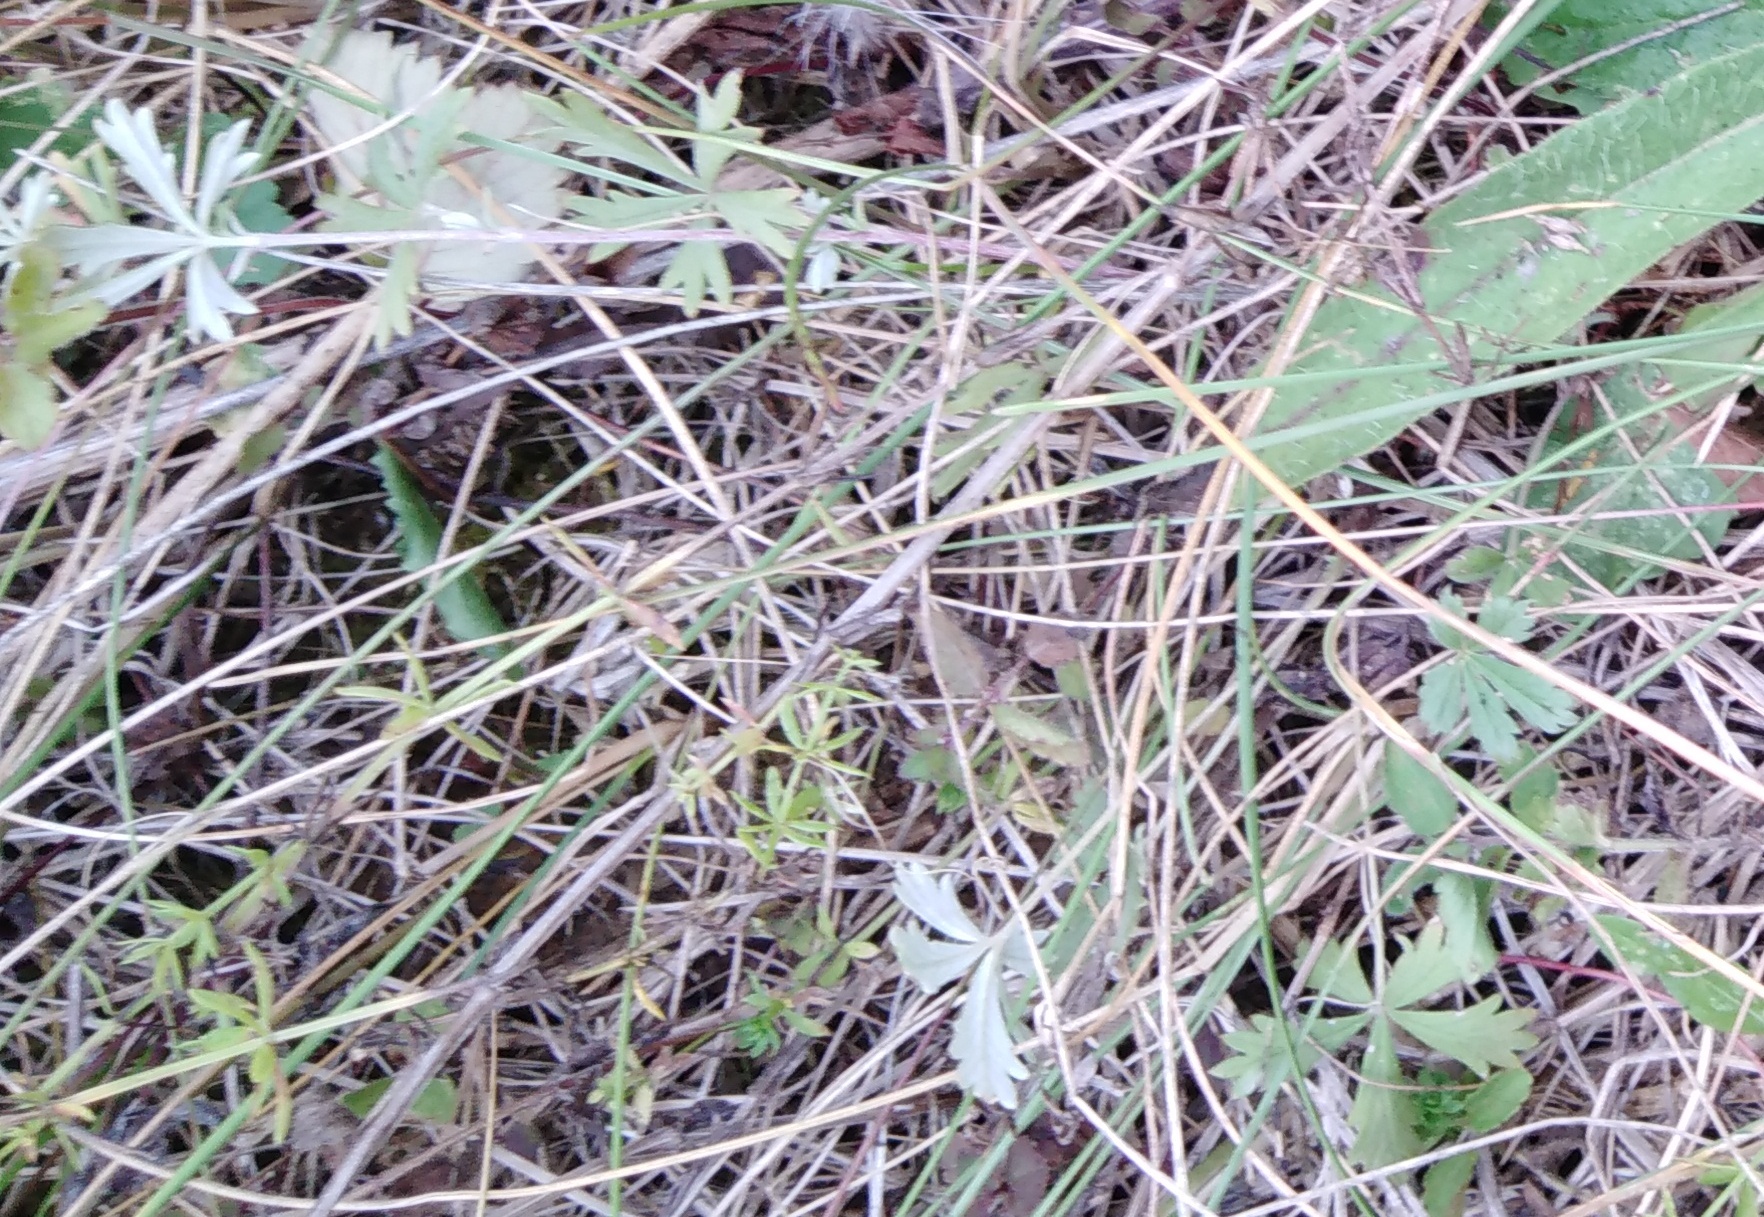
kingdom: Plantae
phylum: Tracheophyta
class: Magnoliopsida
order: Rosales
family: Rosaceae
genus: Potentilla
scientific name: Potentilla argentea
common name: Hoary cinquefoil
